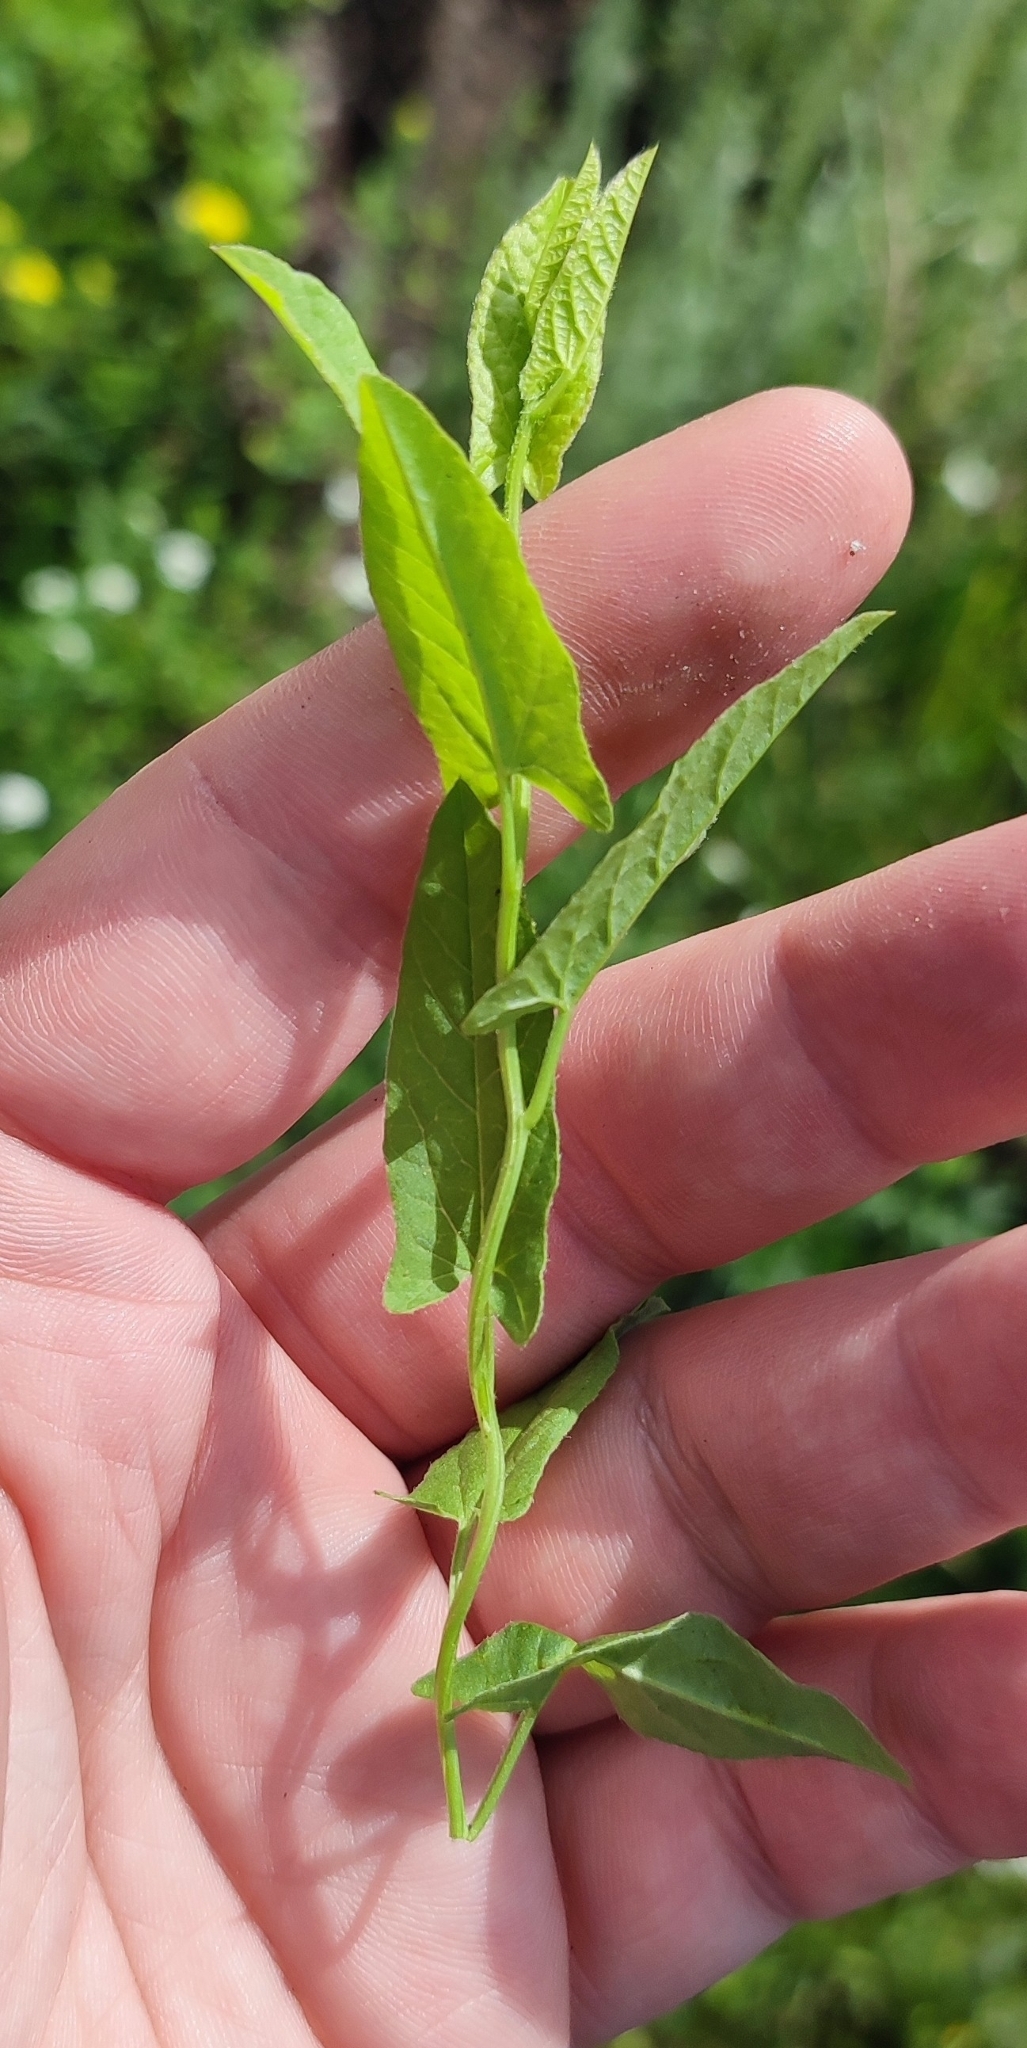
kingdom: Plantae
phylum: Tracheophyta
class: Magnoliopsida
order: Solanales
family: Convolvulaceae
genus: Convolvulus
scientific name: Convolvulus arvensis
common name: Field bindweed
